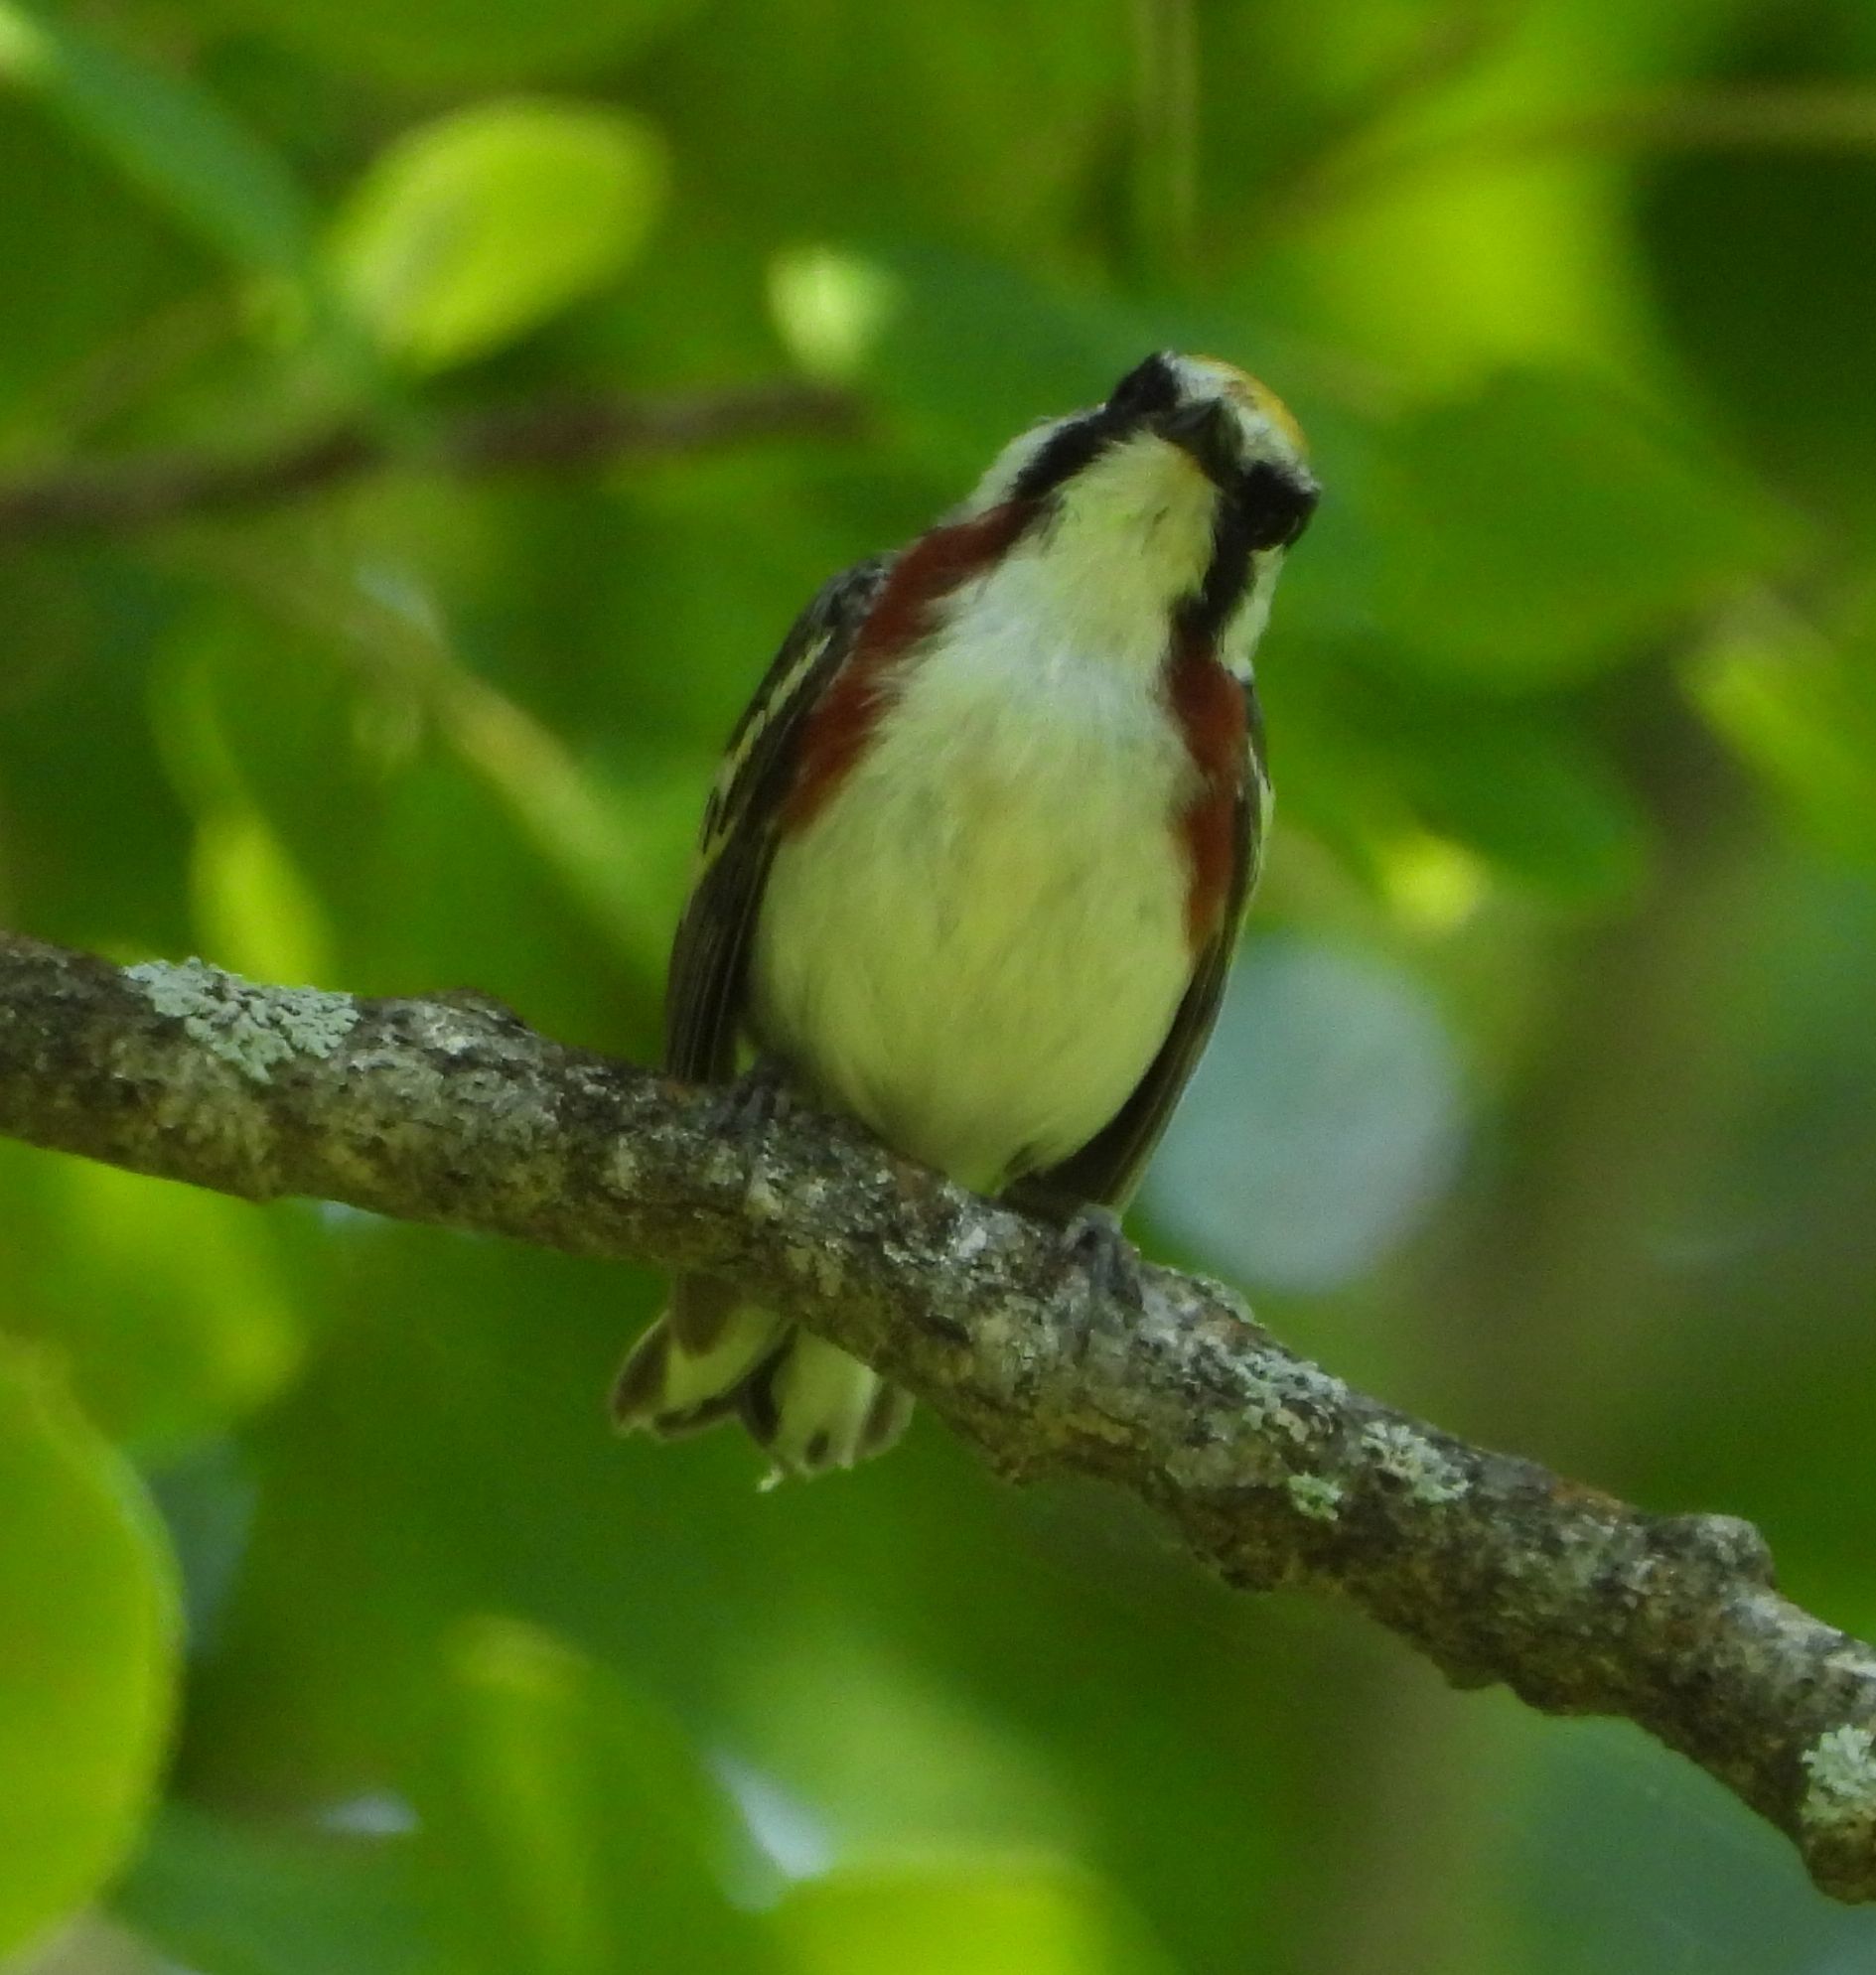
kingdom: Animalia
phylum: Chordata
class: Aves
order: Passeriformes
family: Parulidae
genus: Setophaga
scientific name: Setophaga pensylvanica
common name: Chestnut-sided warbler
